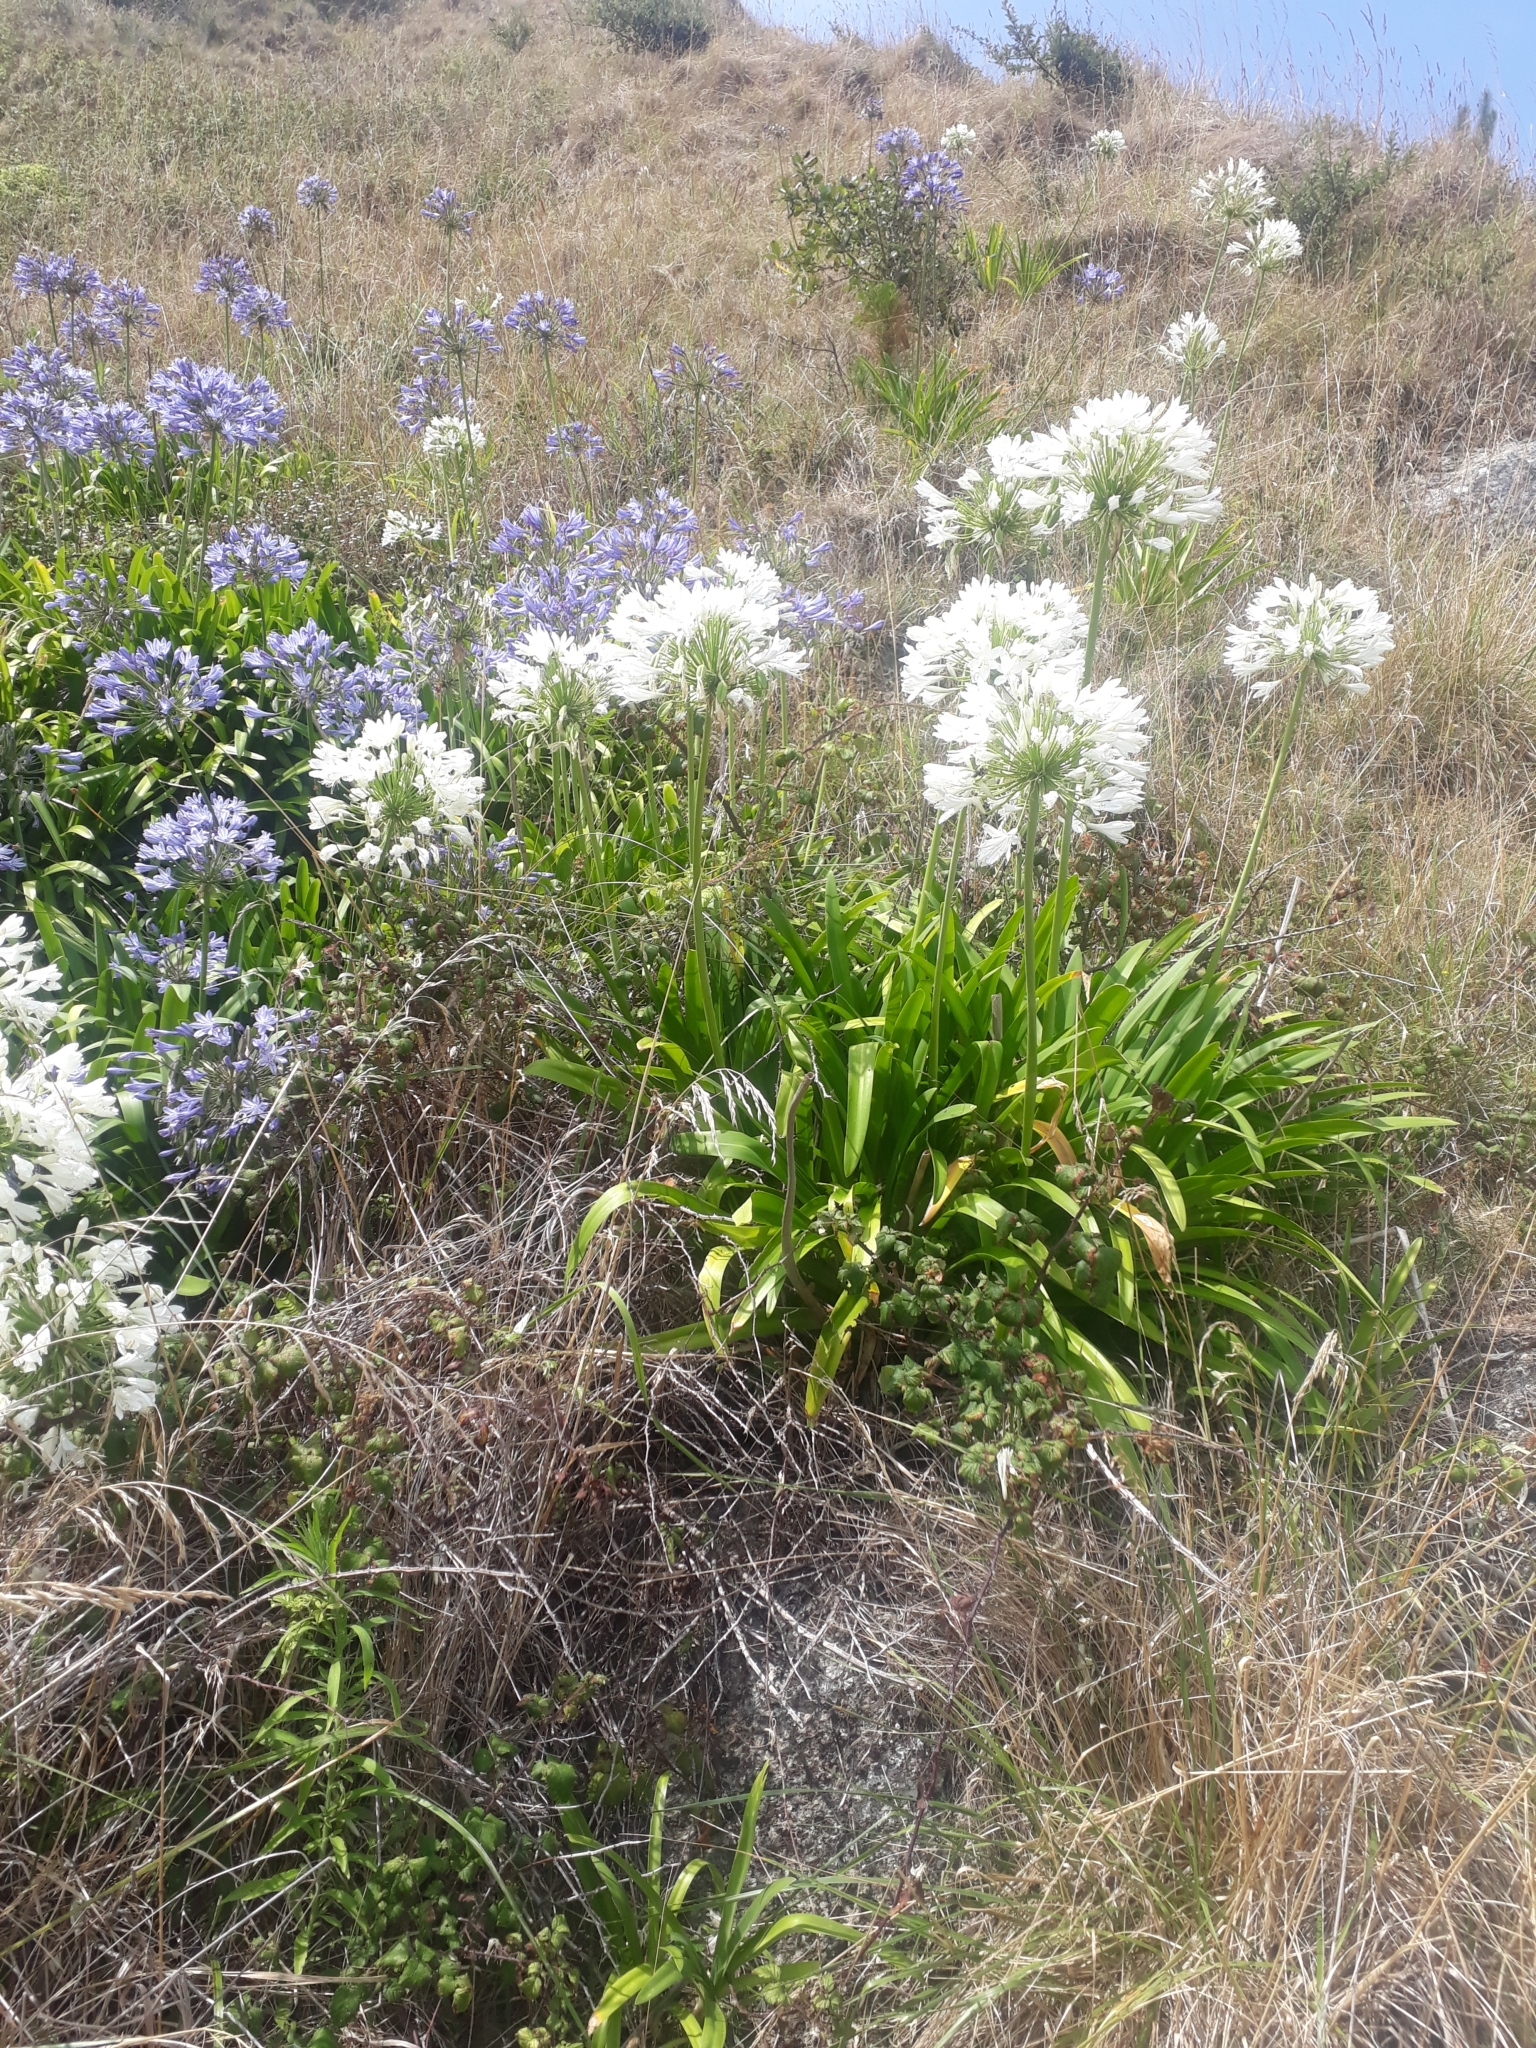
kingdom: Plantae
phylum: Tracheophyta
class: Liliopsida
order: Asparagales
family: Amaryllidaceae
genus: Agapanthus
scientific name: Agapanthus praecox
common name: African-lily
